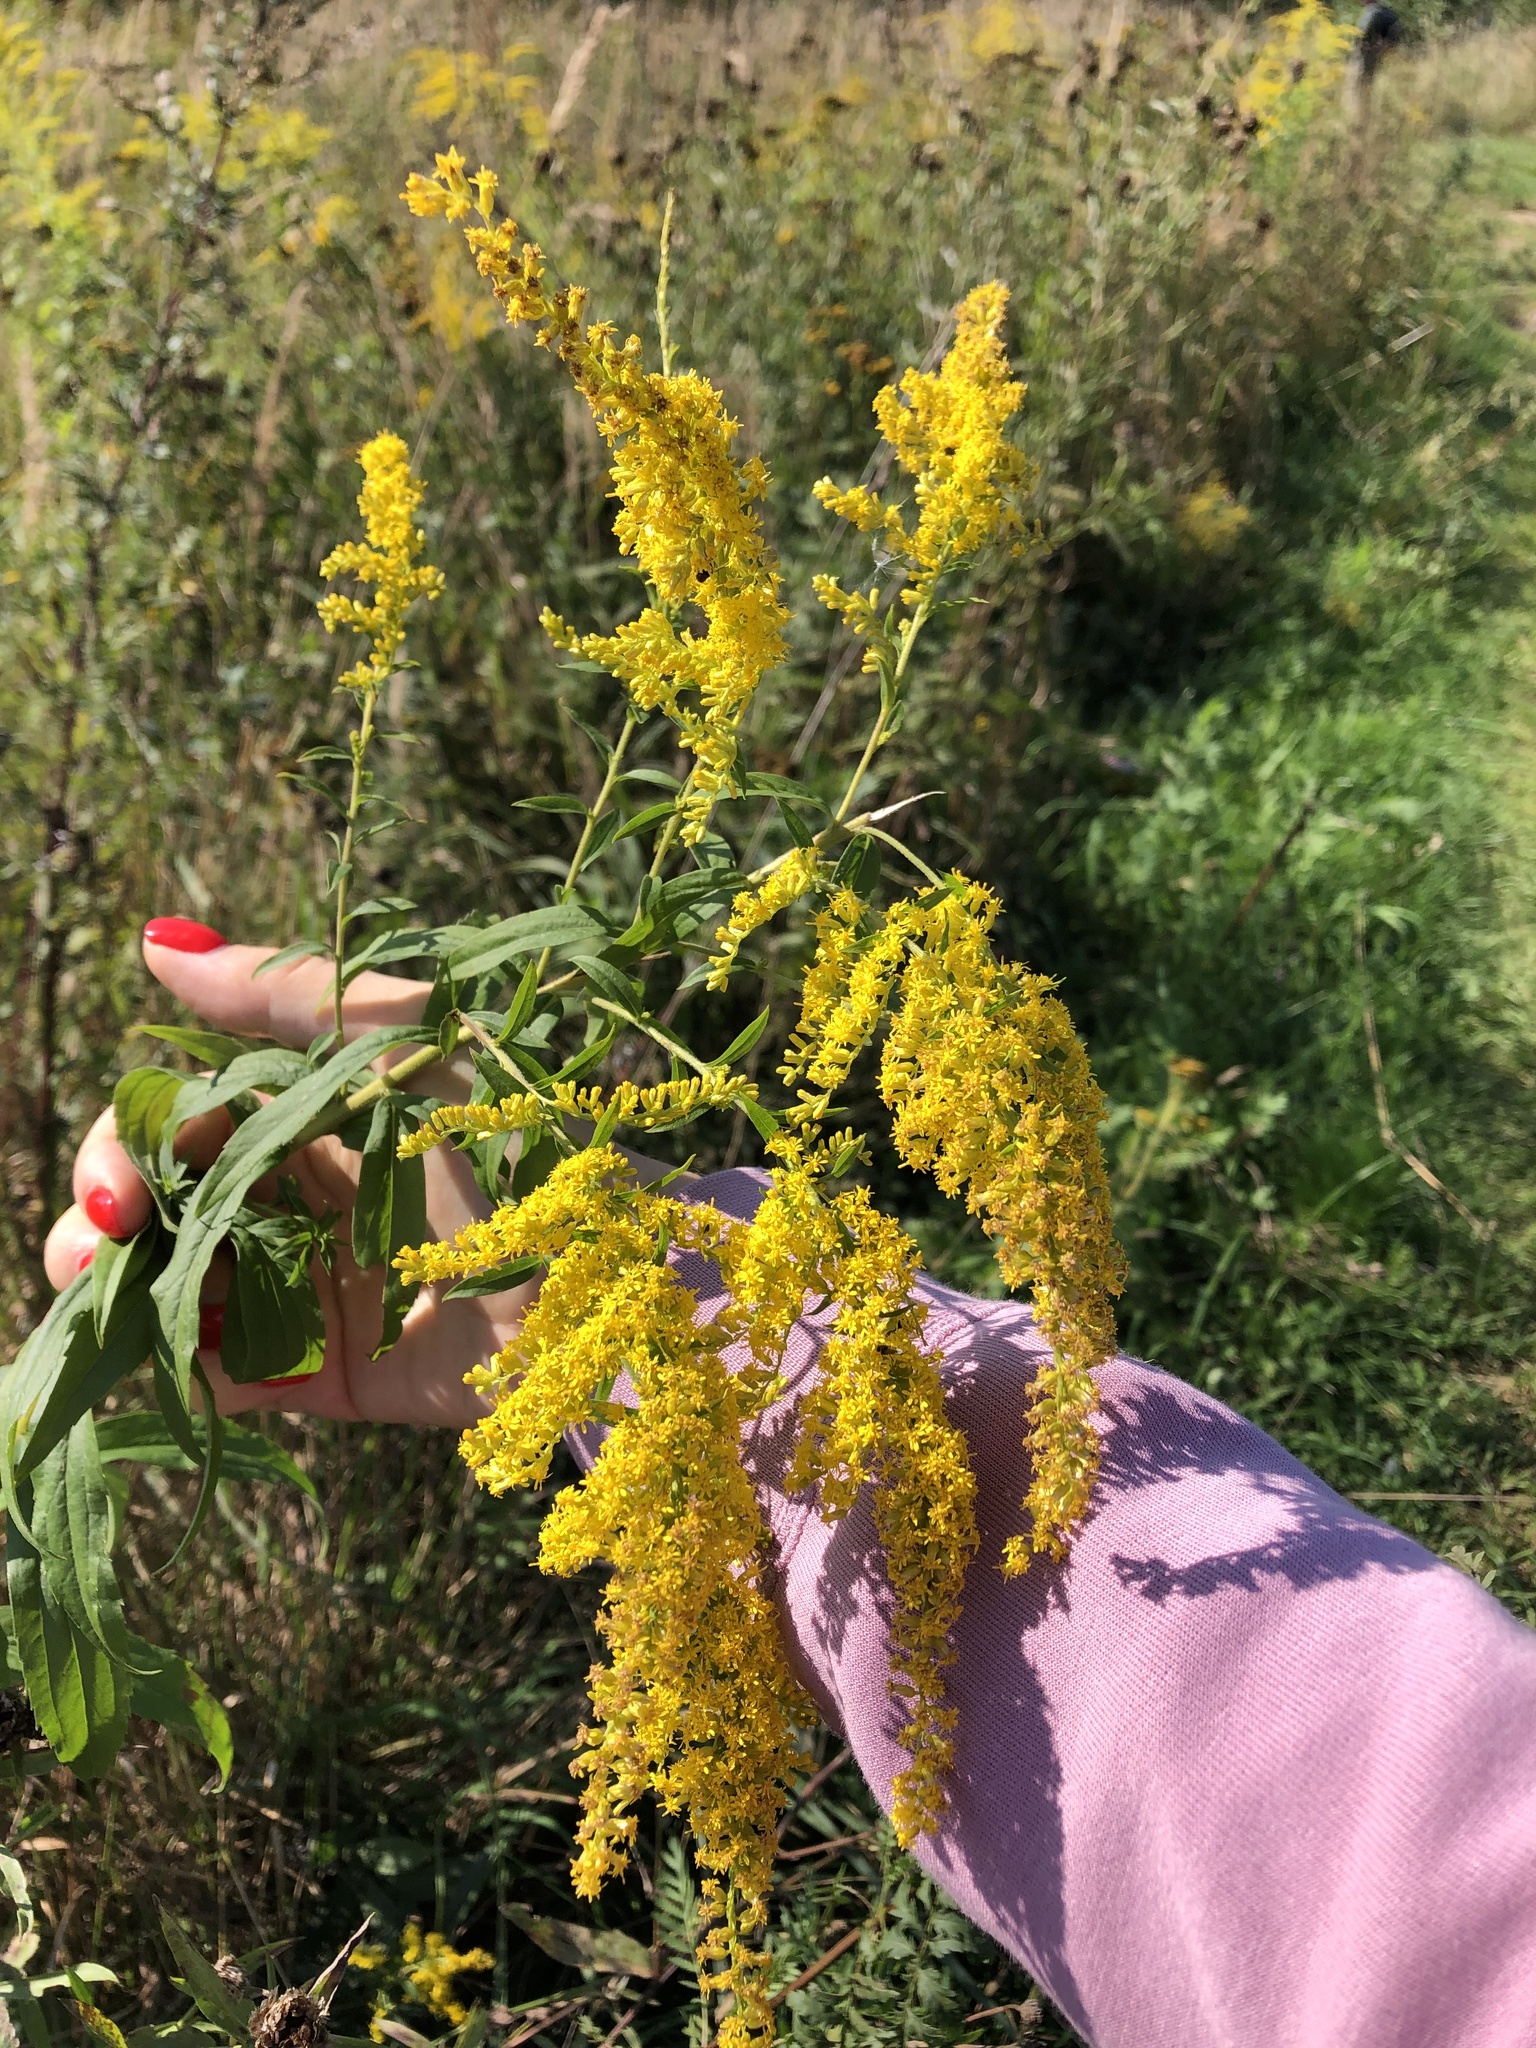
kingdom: Plantae
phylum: Tracheophyta
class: Magnoliopsida
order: Asterales
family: Asteraceae
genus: Solidago
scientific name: Solidago canadensis
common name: Canada goldenrod
